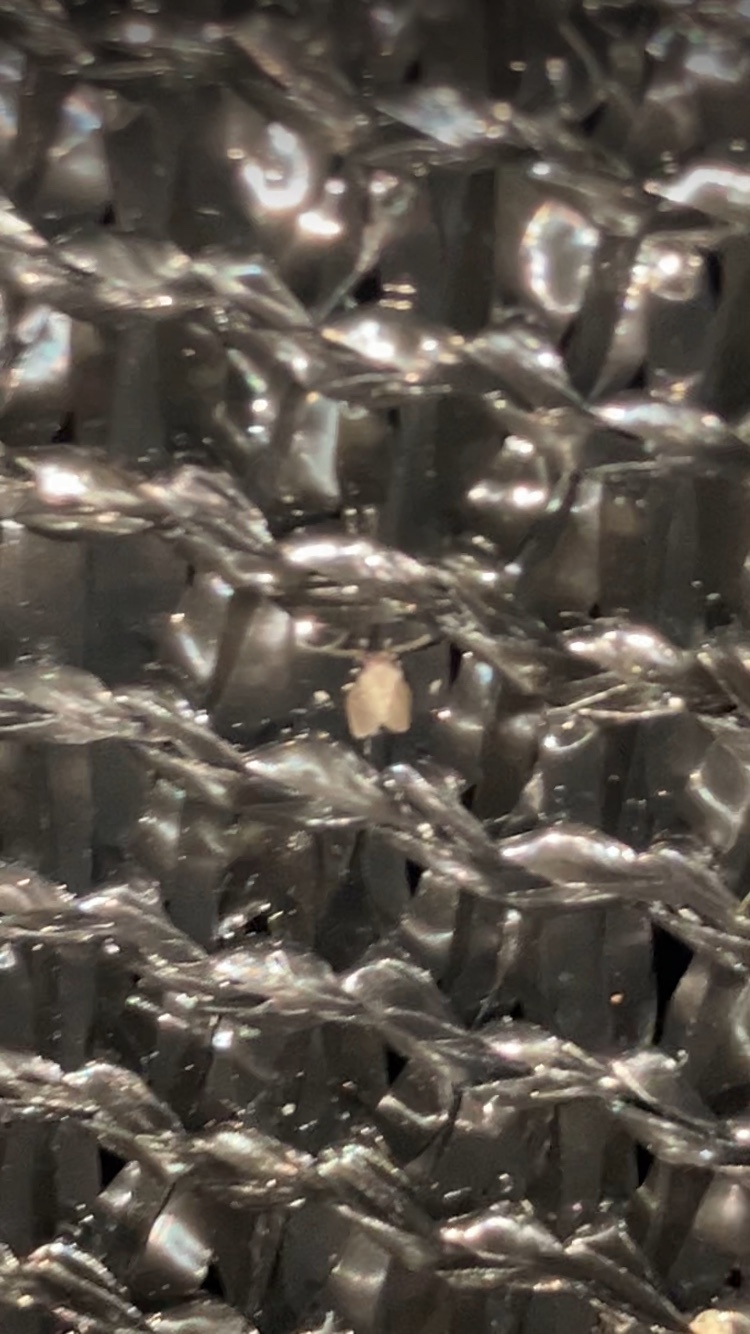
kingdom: Animalia
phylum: Arthropoda
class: Insecta
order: Diptera
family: Psychodidae
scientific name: Psychodidae
